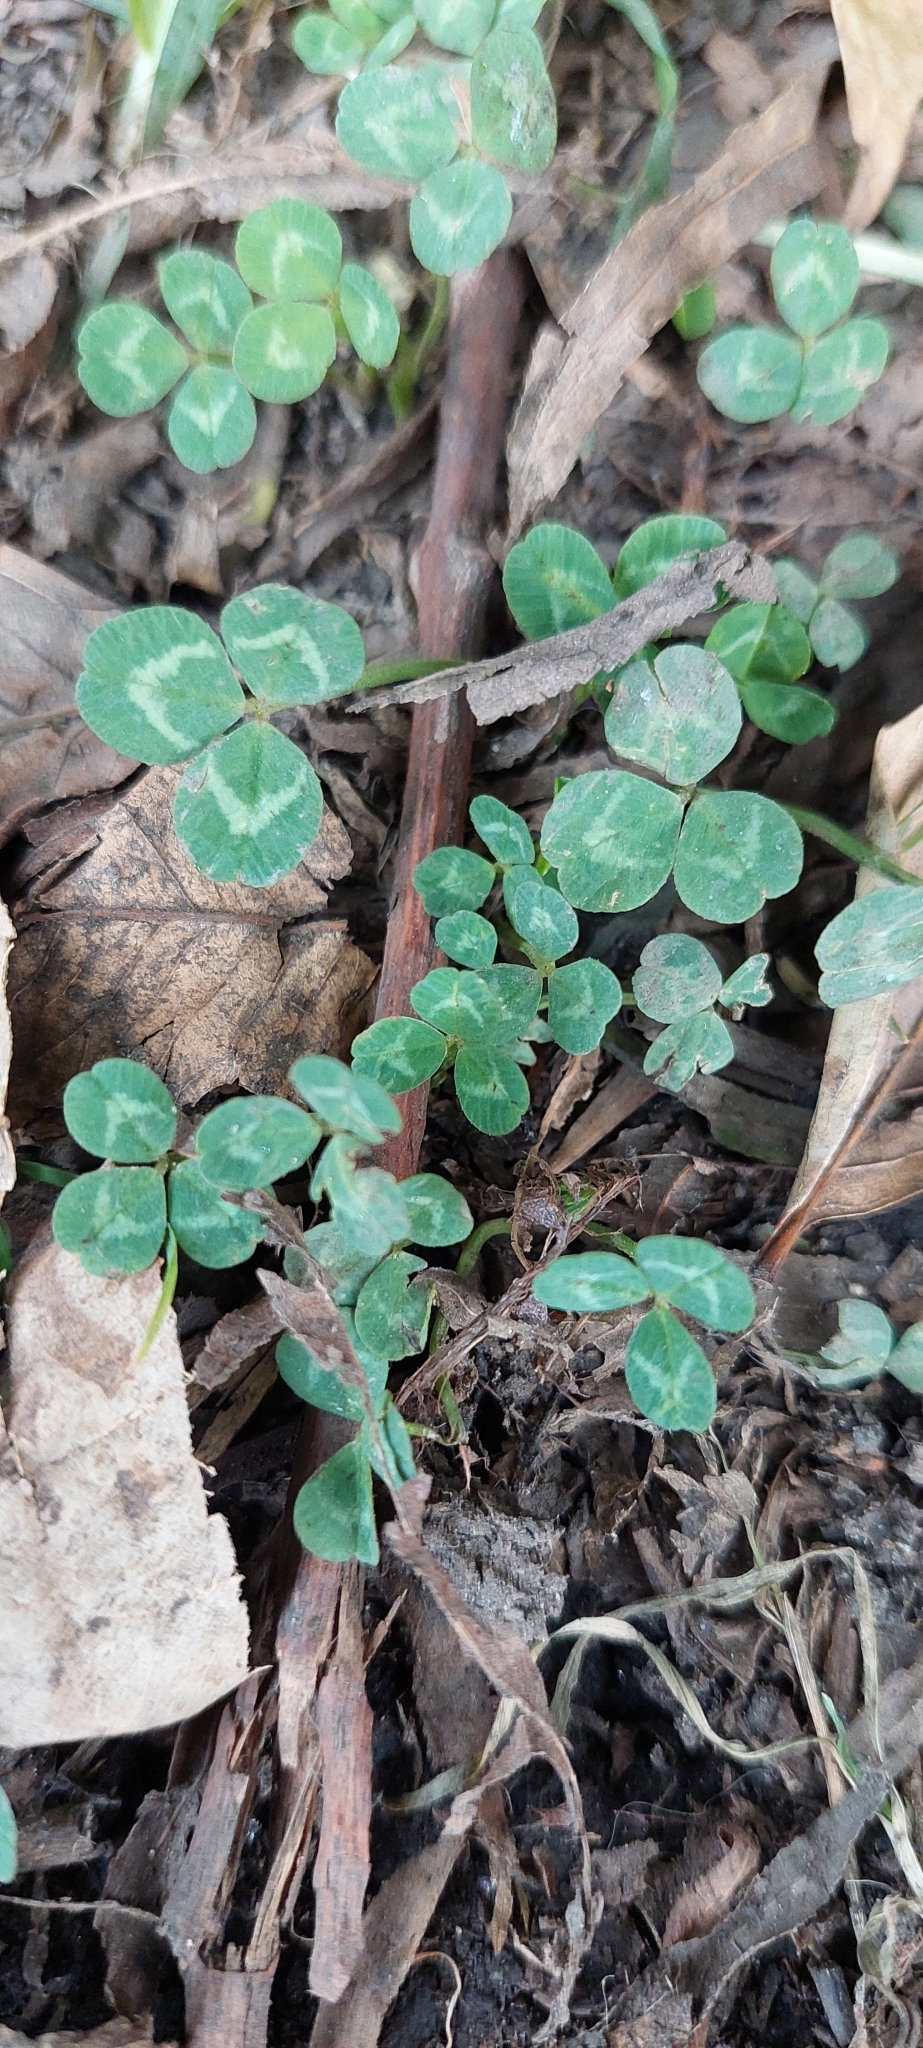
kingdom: Plantae
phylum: Tracheophyta
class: Magnoliopsida
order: Fabales
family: Fabaceae
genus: Trifolium
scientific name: Trifolium repens
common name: White clover
